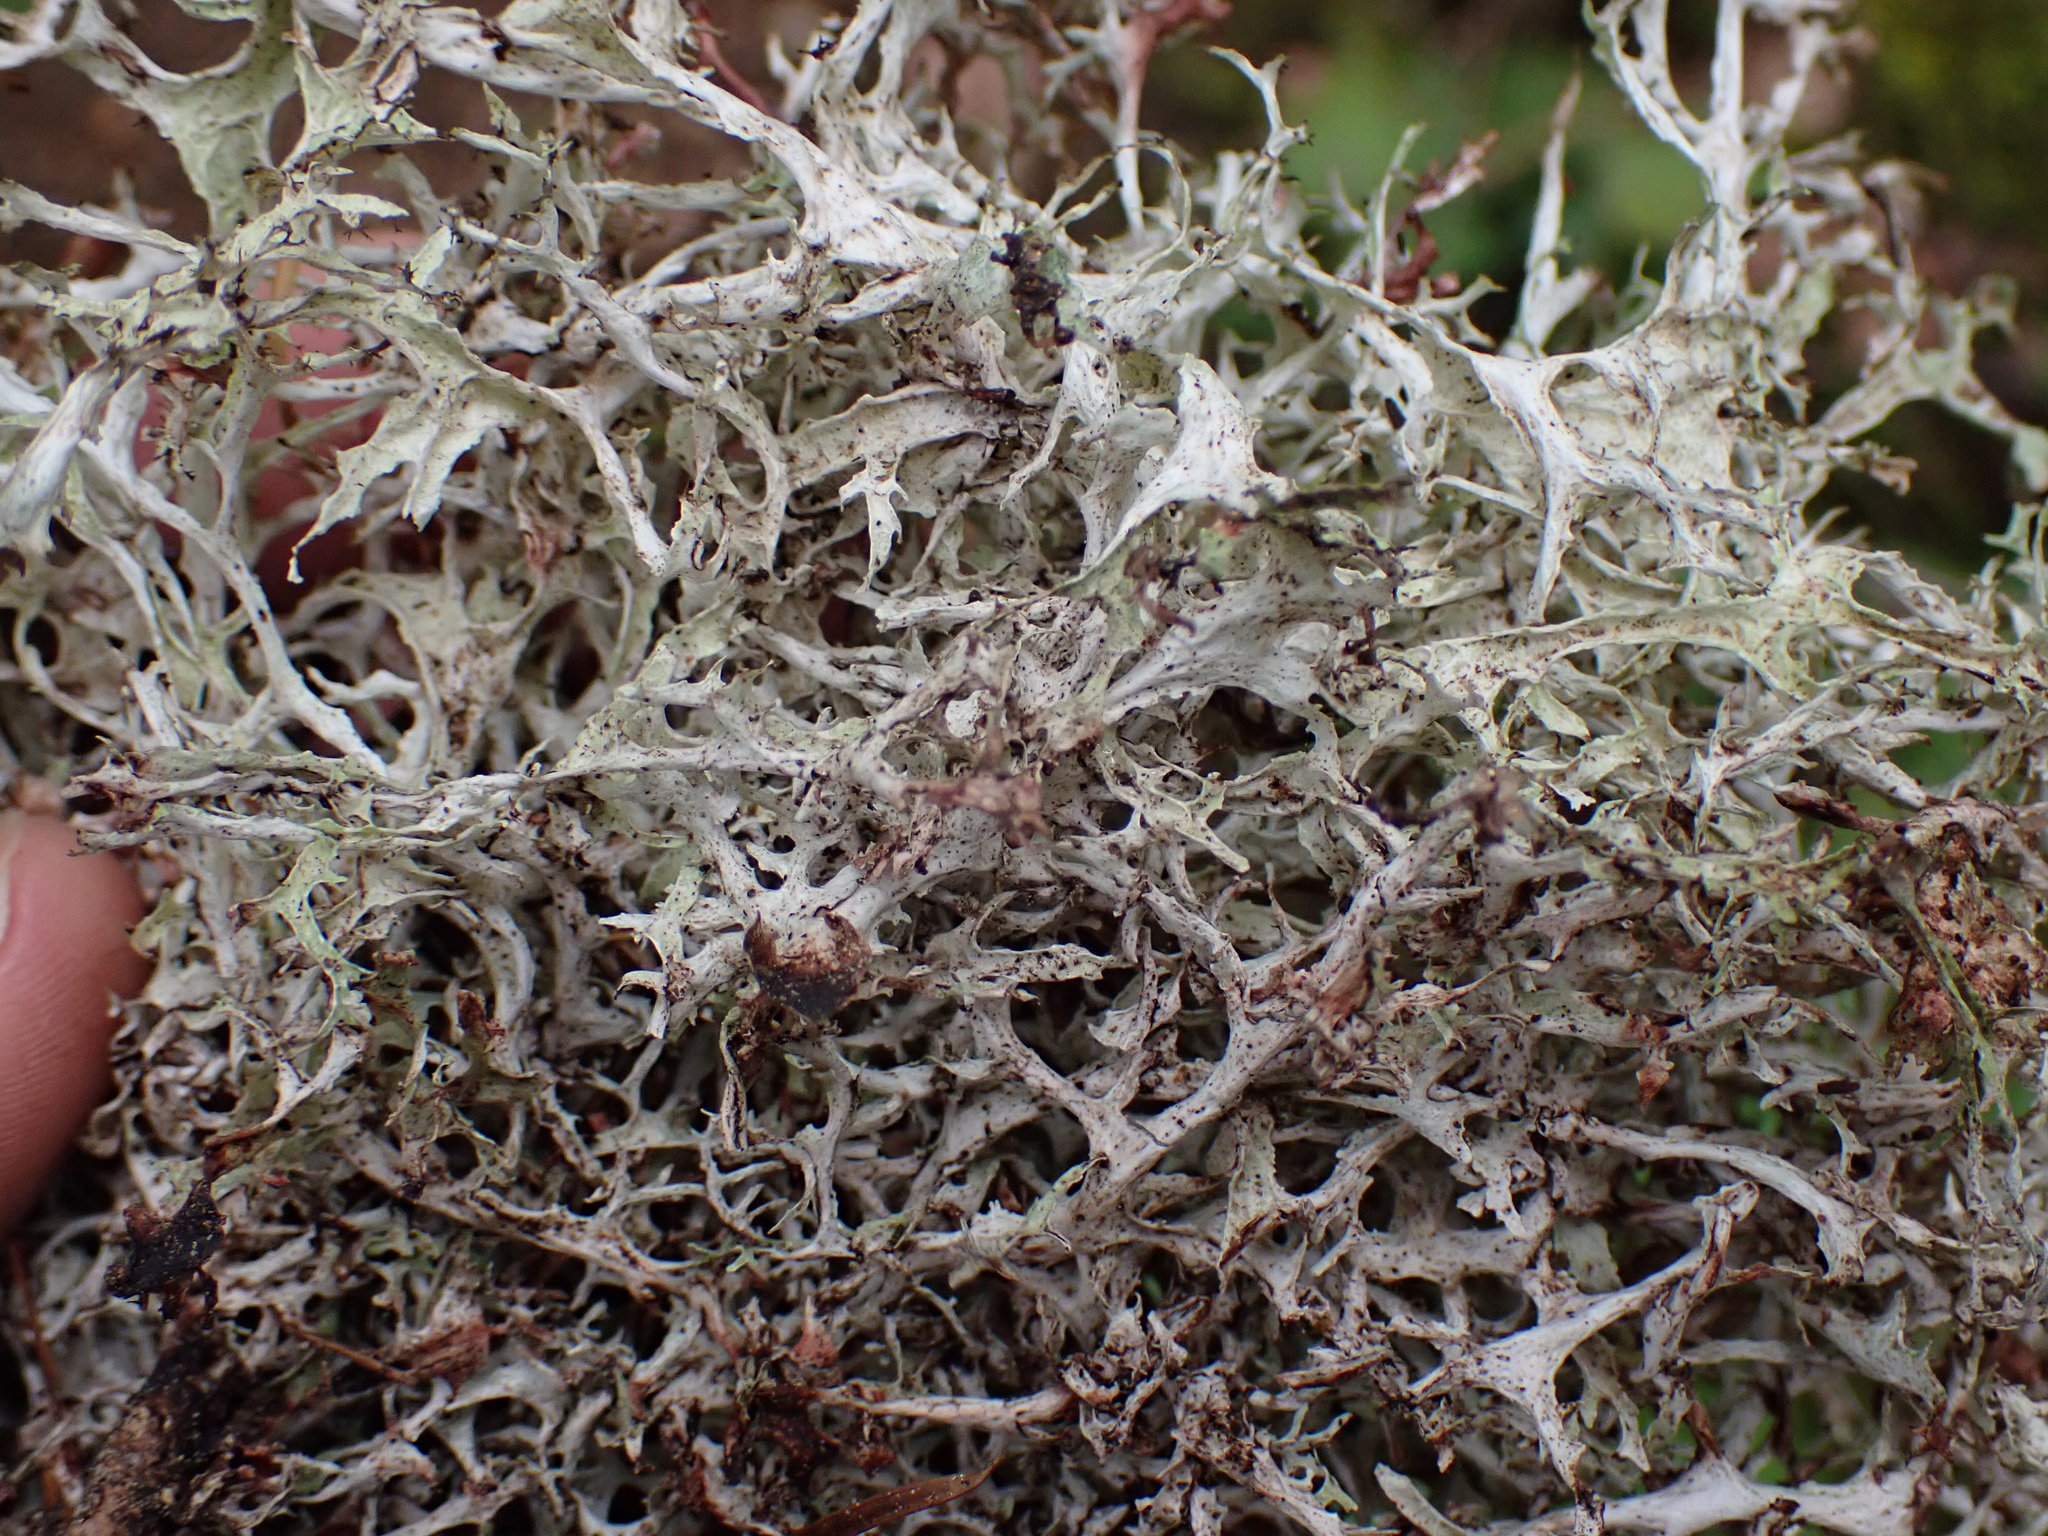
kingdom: Fungi
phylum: Ascomycota
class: Lecanoromycetes
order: Lecanorales
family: Parmeliaceae
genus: Platismatia
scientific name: Platismatia stenophylla
